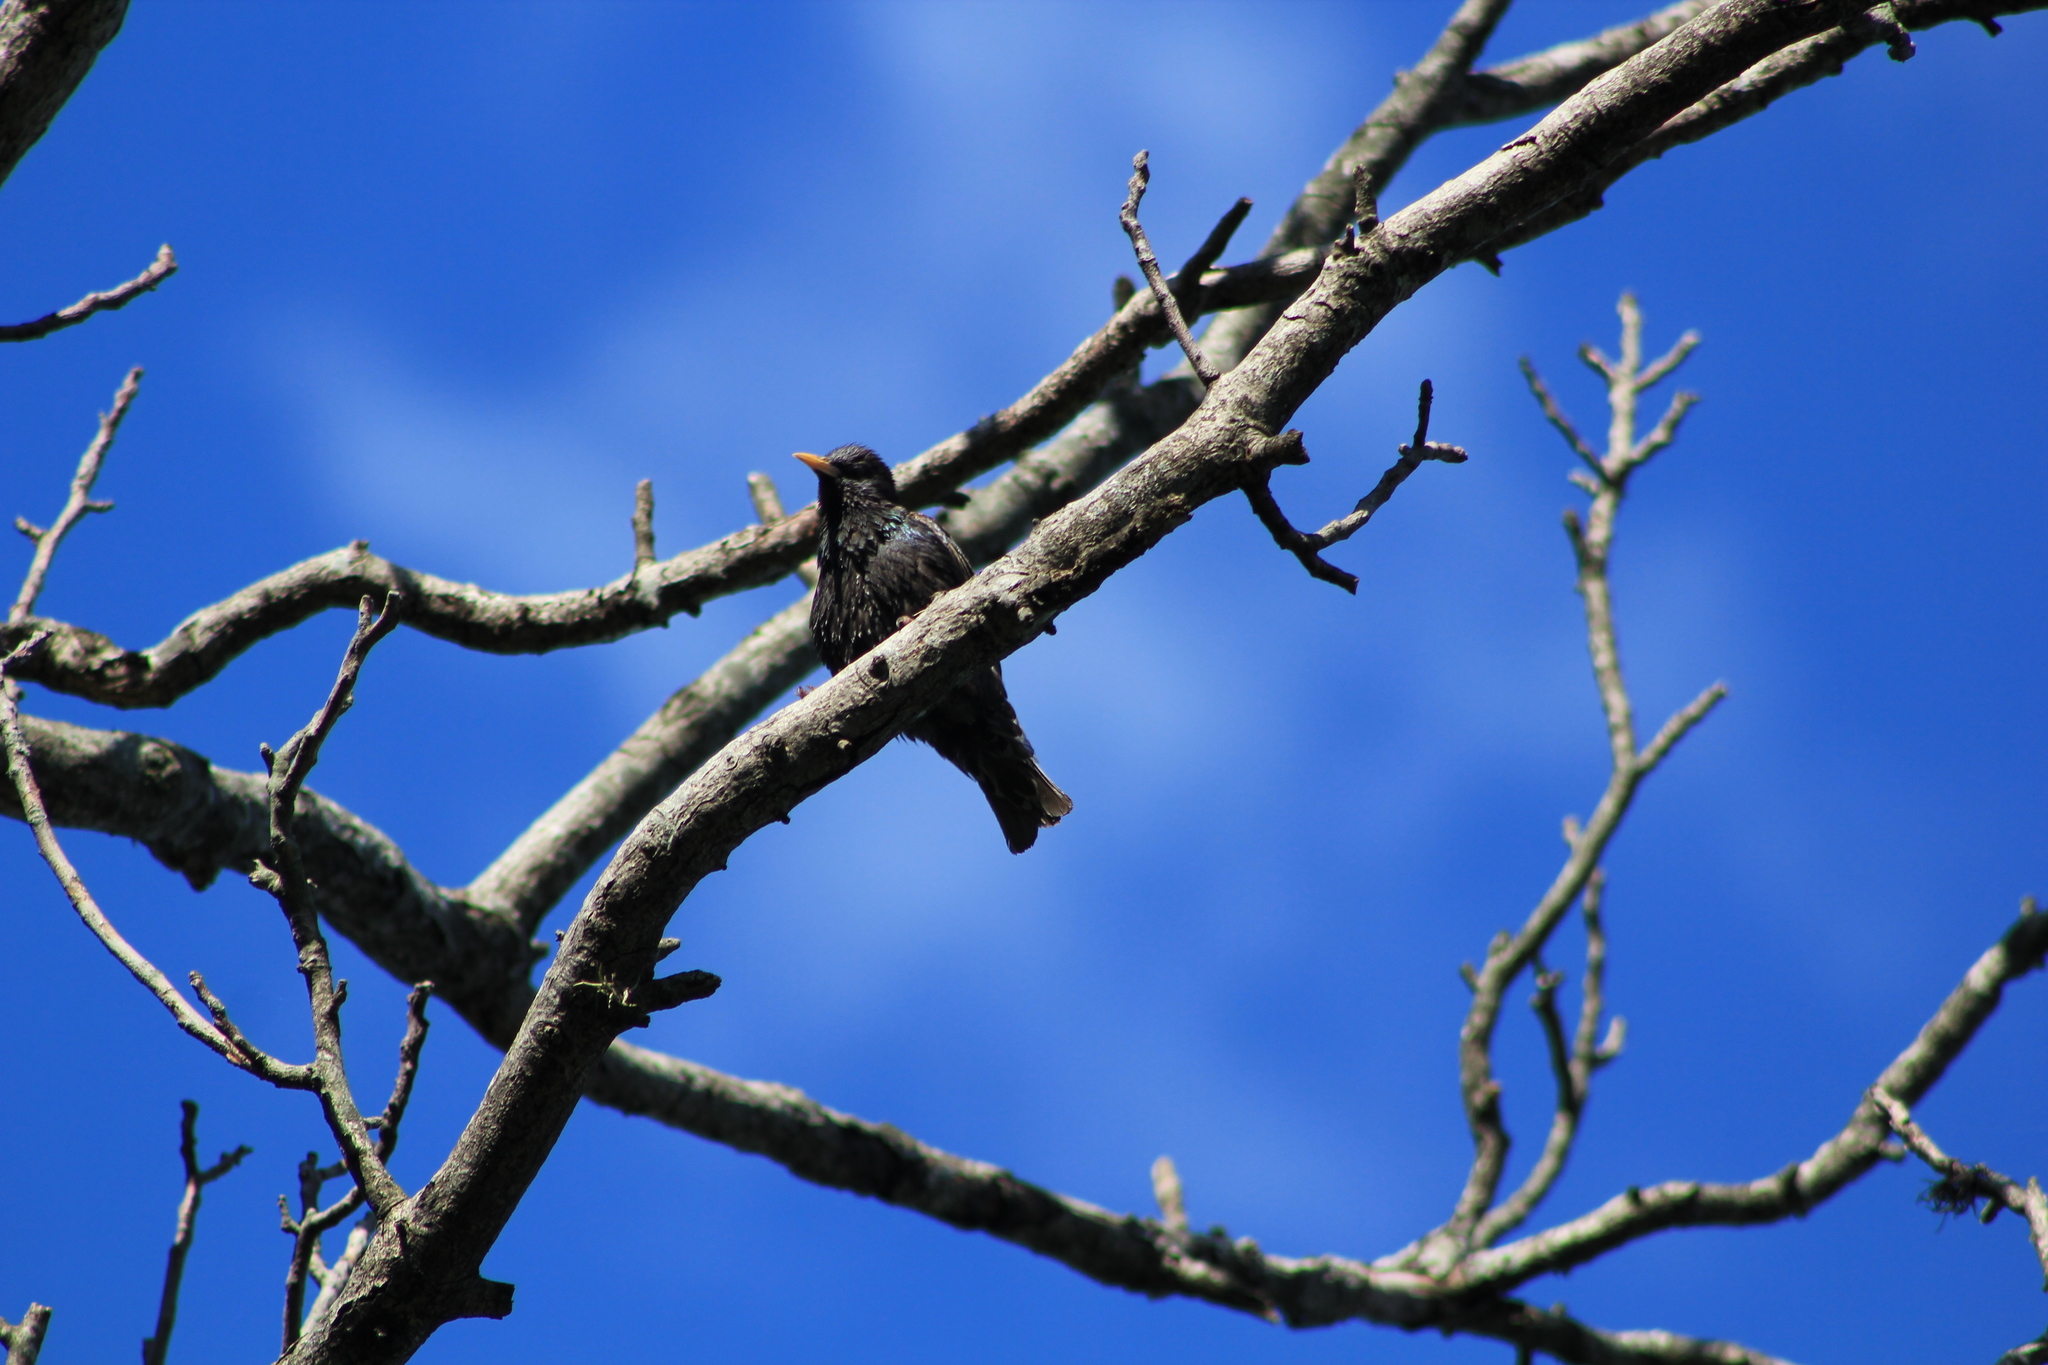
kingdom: Animalia
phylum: Chordata
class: Aves
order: Passeriformes
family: Sturnidae
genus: Sturnus
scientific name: Sturnus vulgaris
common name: Common starling
